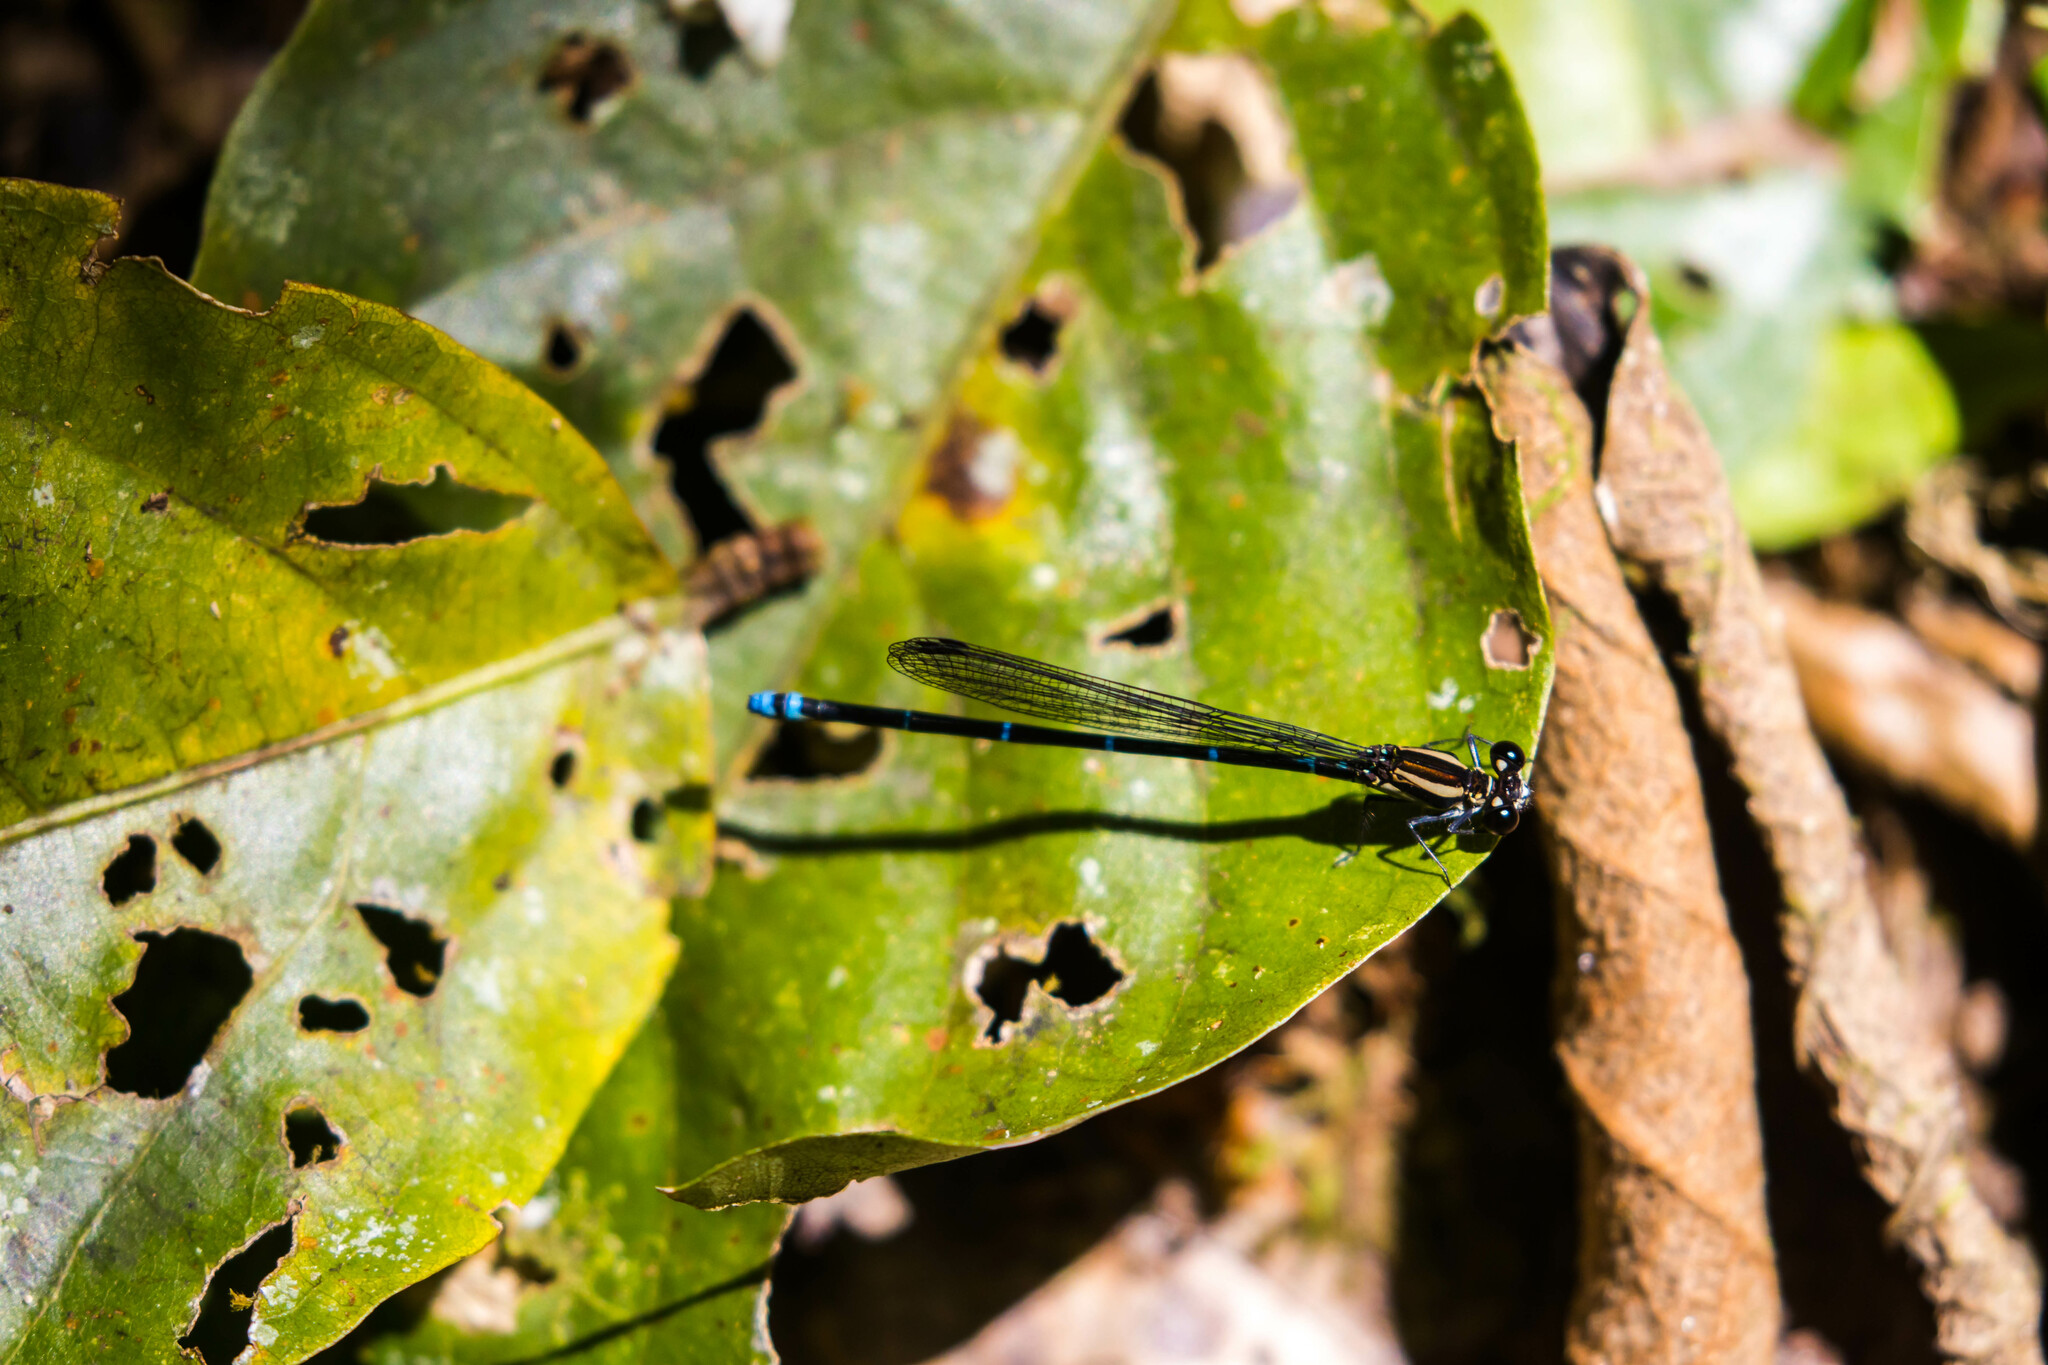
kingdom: Animalia
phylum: Arthropoda
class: Insecta
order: Odonata
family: Coenagrionidae
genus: Argia
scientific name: Argia oculata
